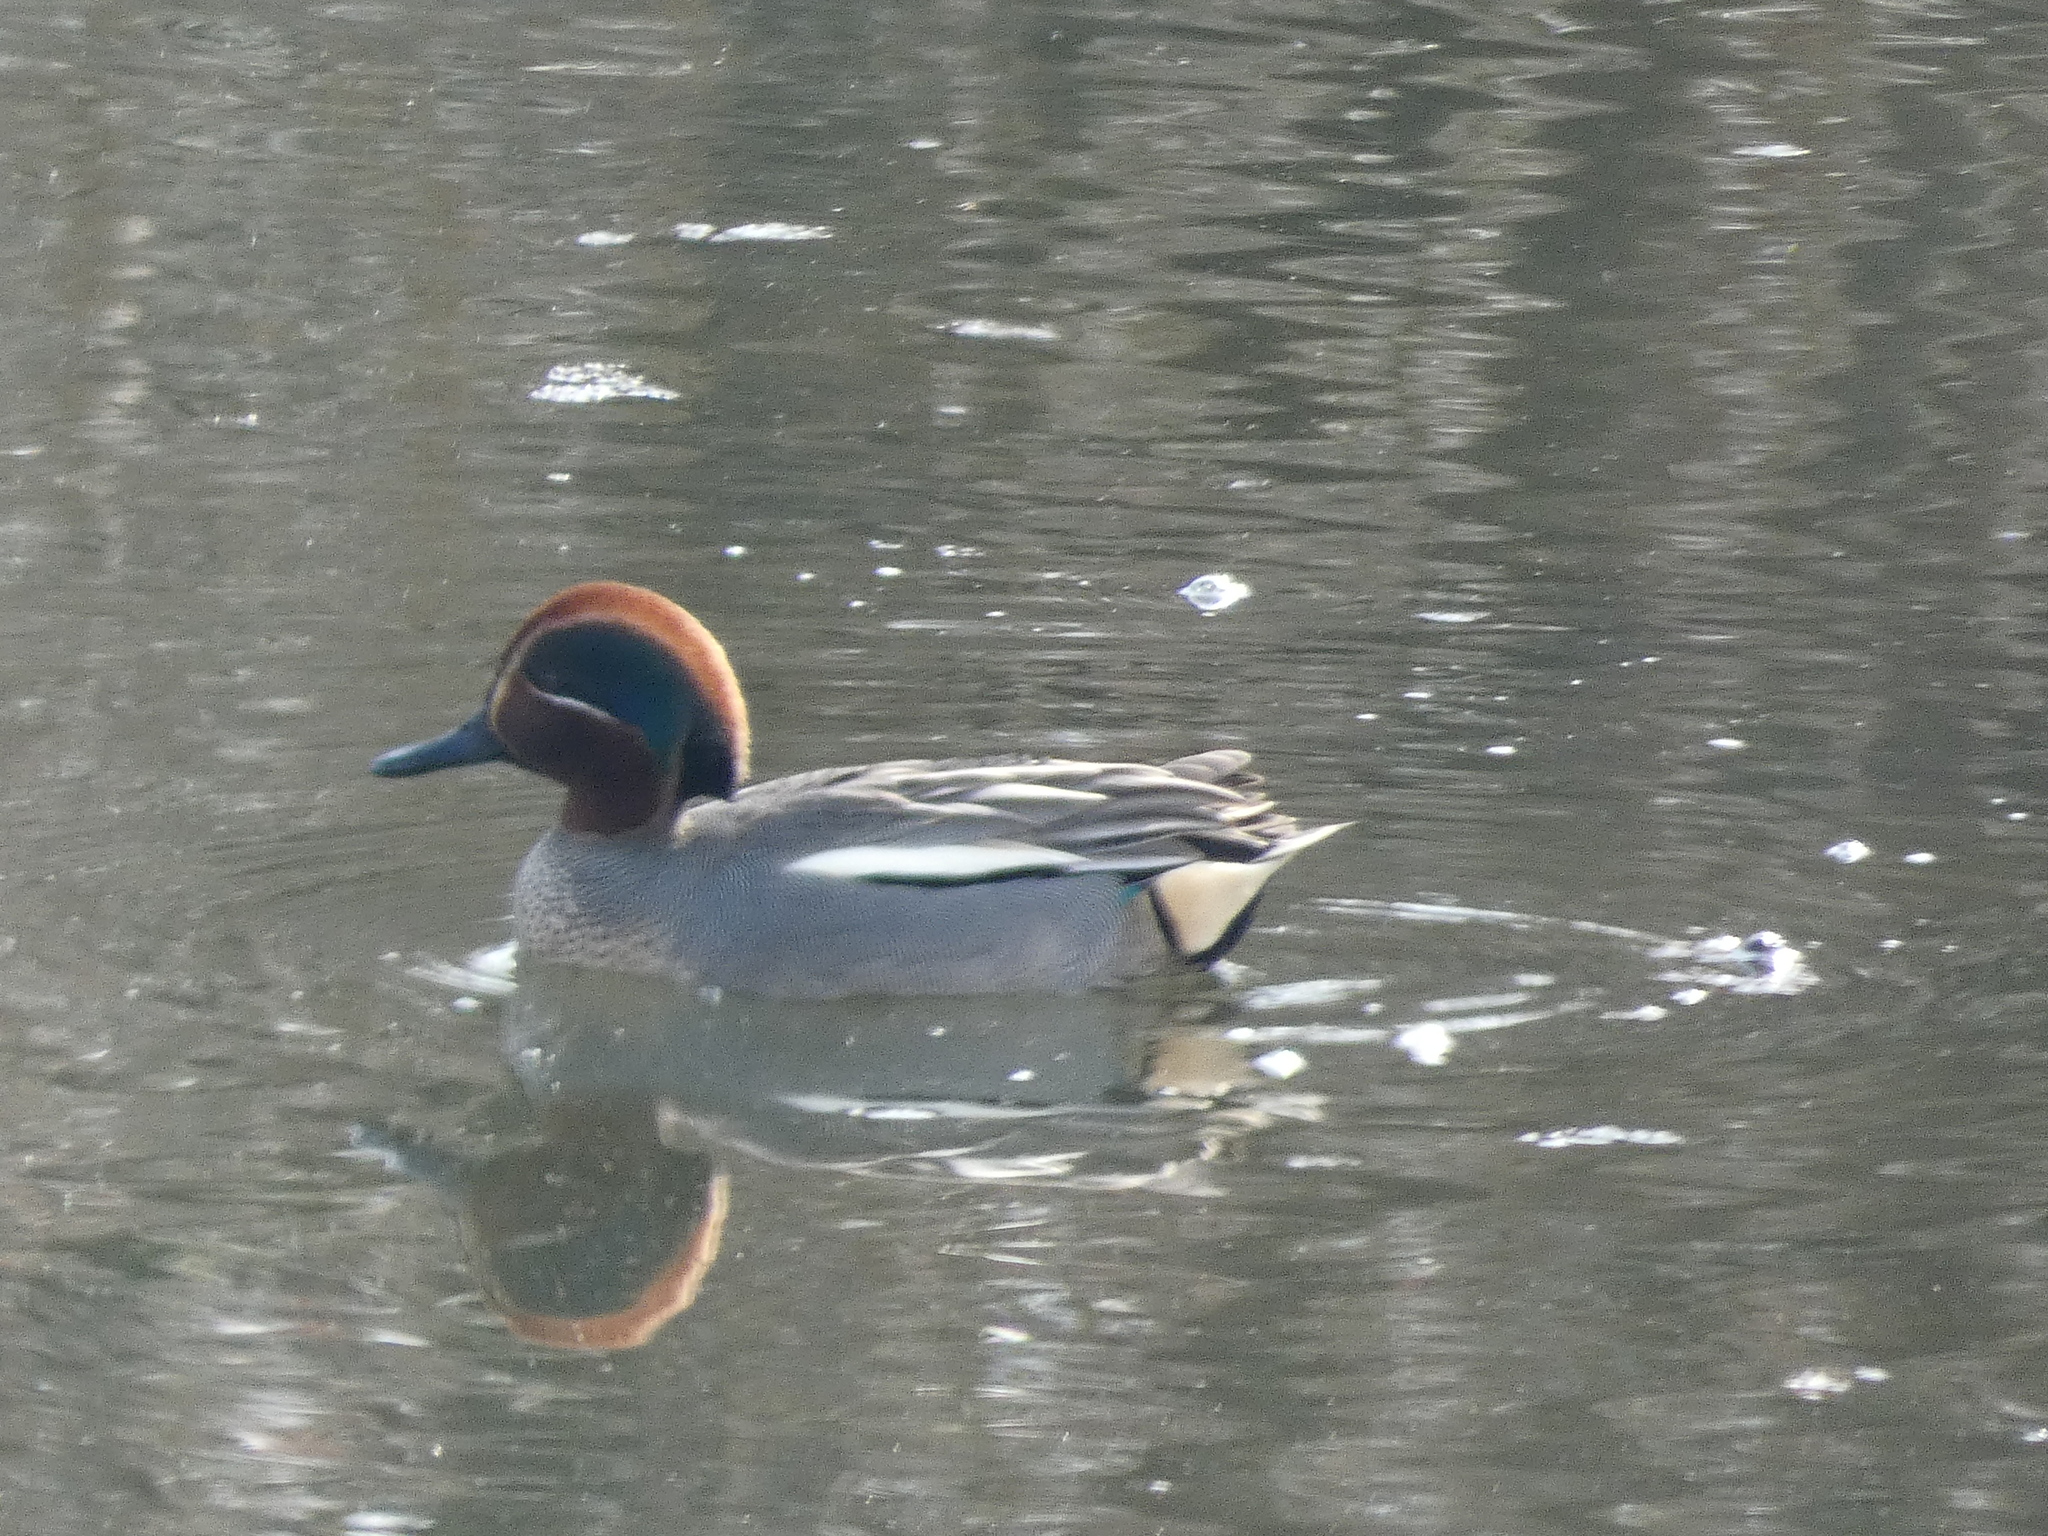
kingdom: Animalia
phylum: Chordata
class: Aves
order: Anseriformes
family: Anatidae
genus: Anas
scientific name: Anas crecca
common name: Eurasian teal
